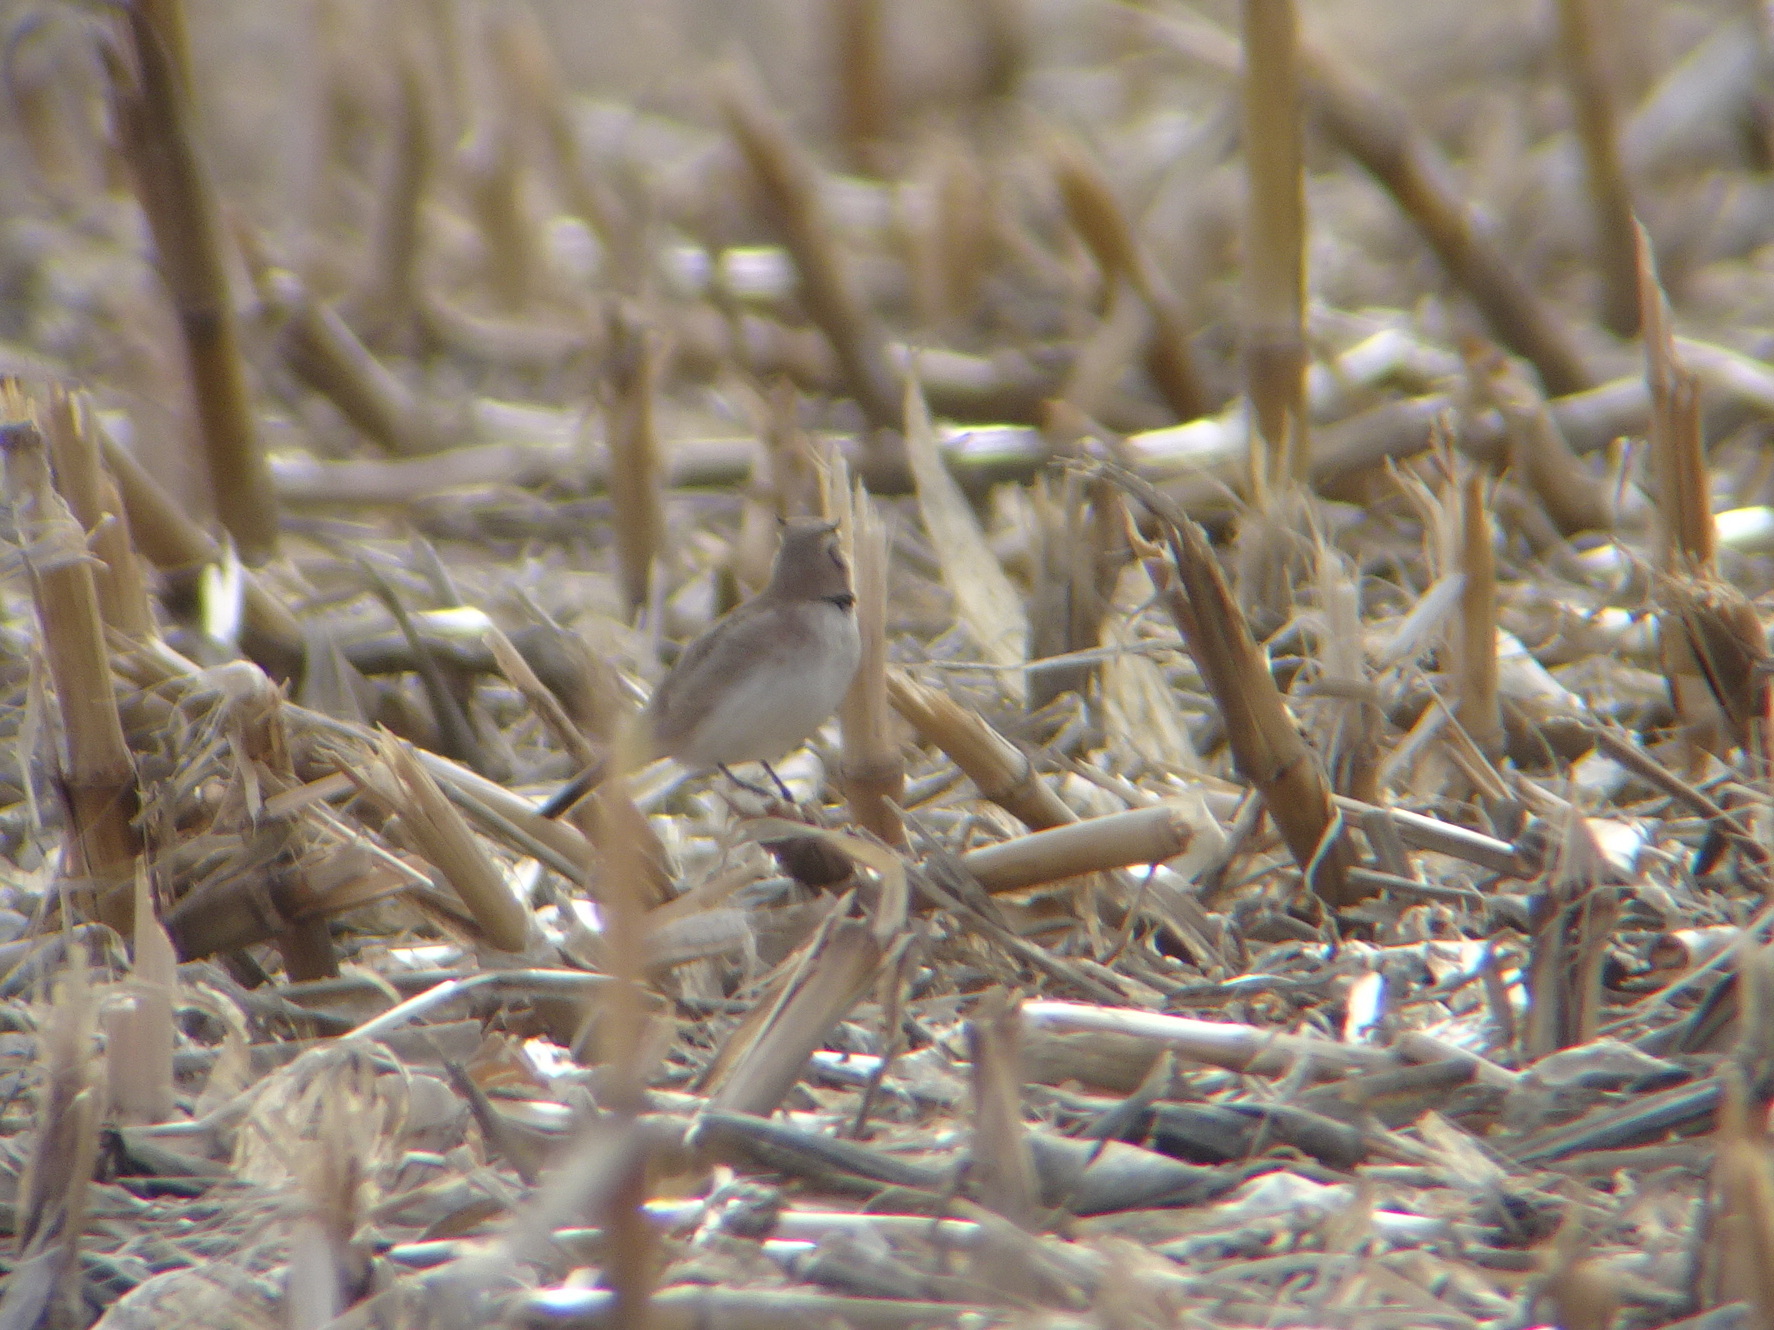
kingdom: Animalia
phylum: Chordata
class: Aves
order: Passeriformes
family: Alaudidae
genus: Eremophila
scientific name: Eremophila alpestris
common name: Horned lark
